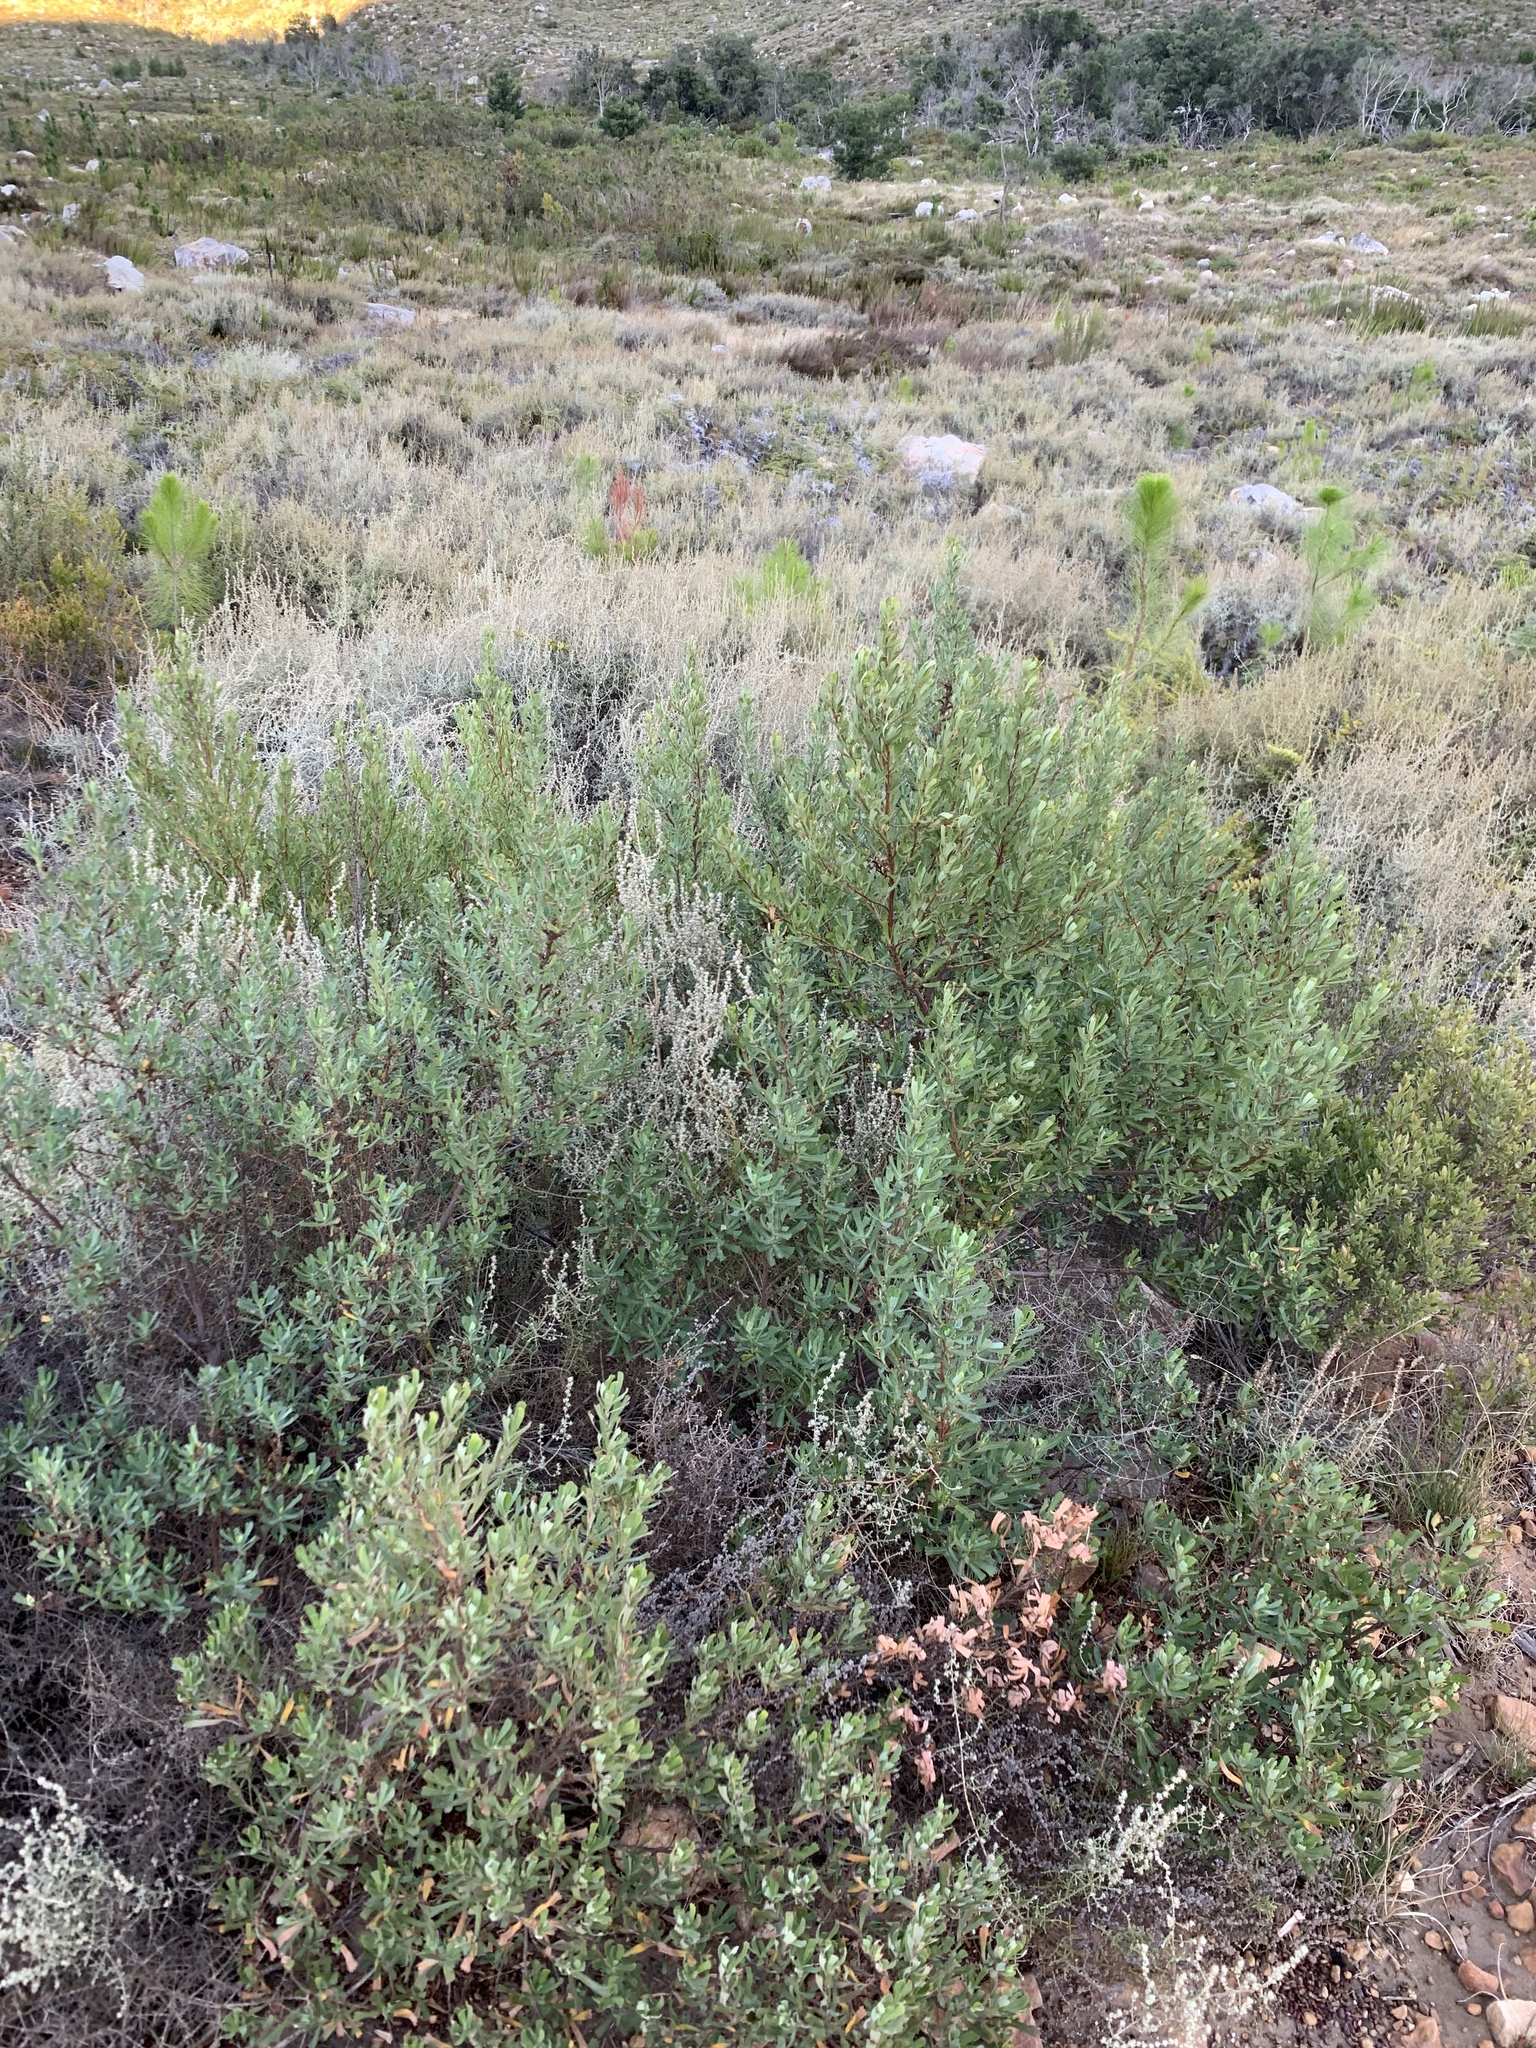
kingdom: Plantae
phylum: Tracheophyta
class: Magnoliopsida
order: Rosales
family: Rosaceae
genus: Cliffortia
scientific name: Cliffortia cuneata
